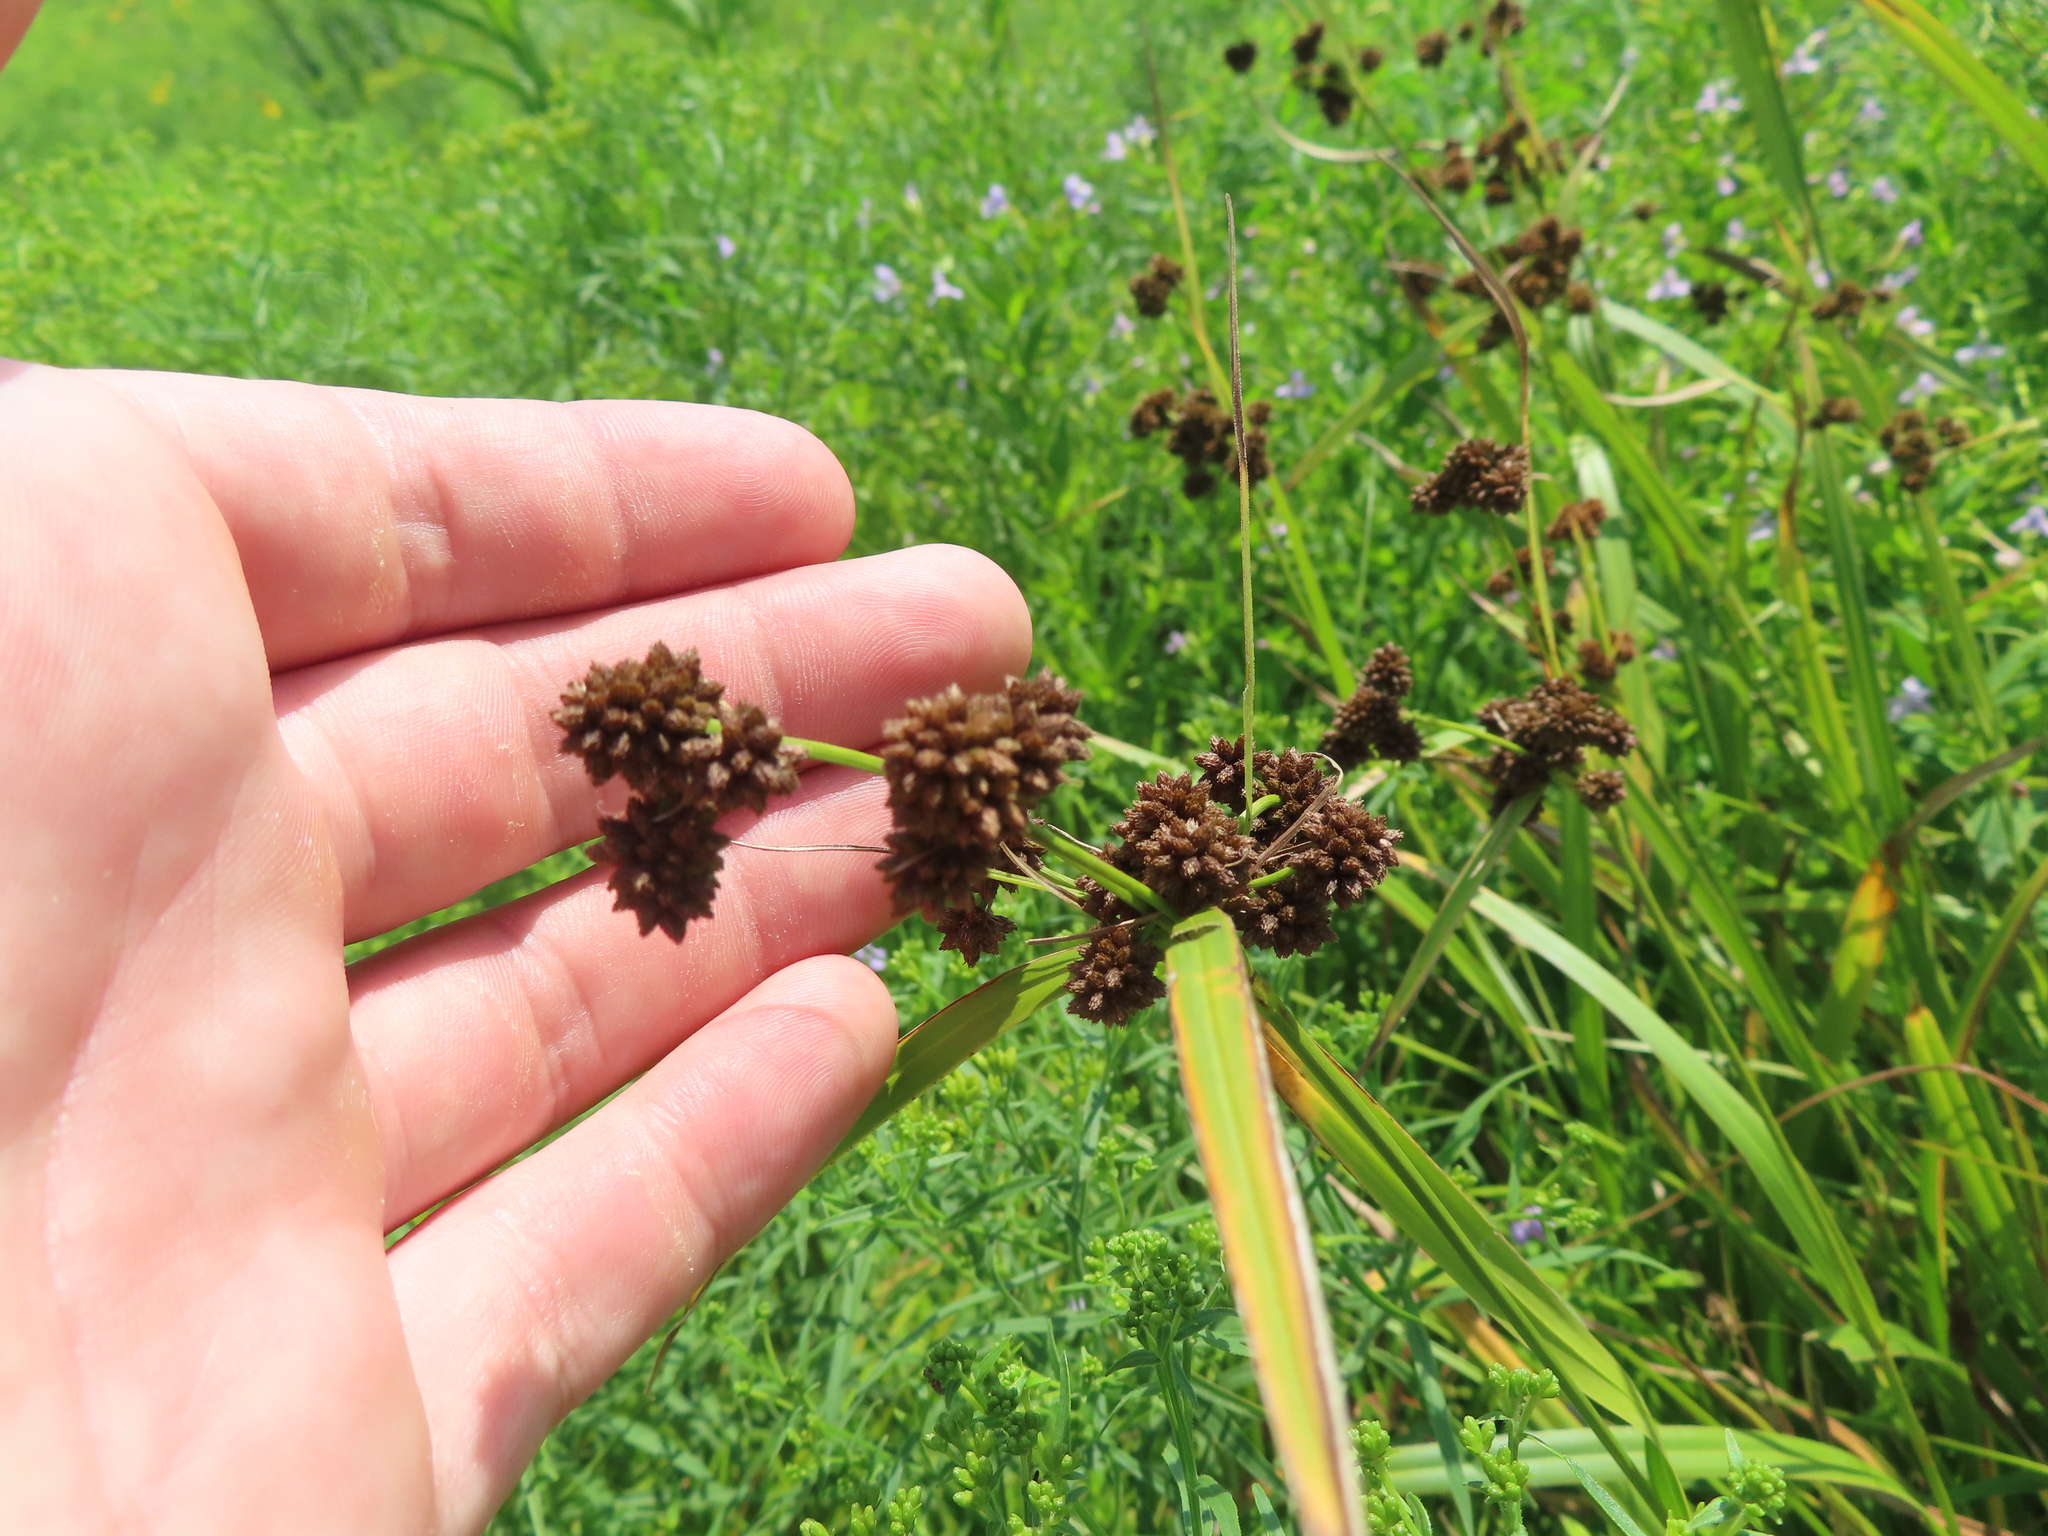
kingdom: Plantae
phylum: Tracheophyta
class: Liliopsida
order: Poales
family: Cyperaceae
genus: Scirpus
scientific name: Scirpus atrovirens
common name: Black bulrush
